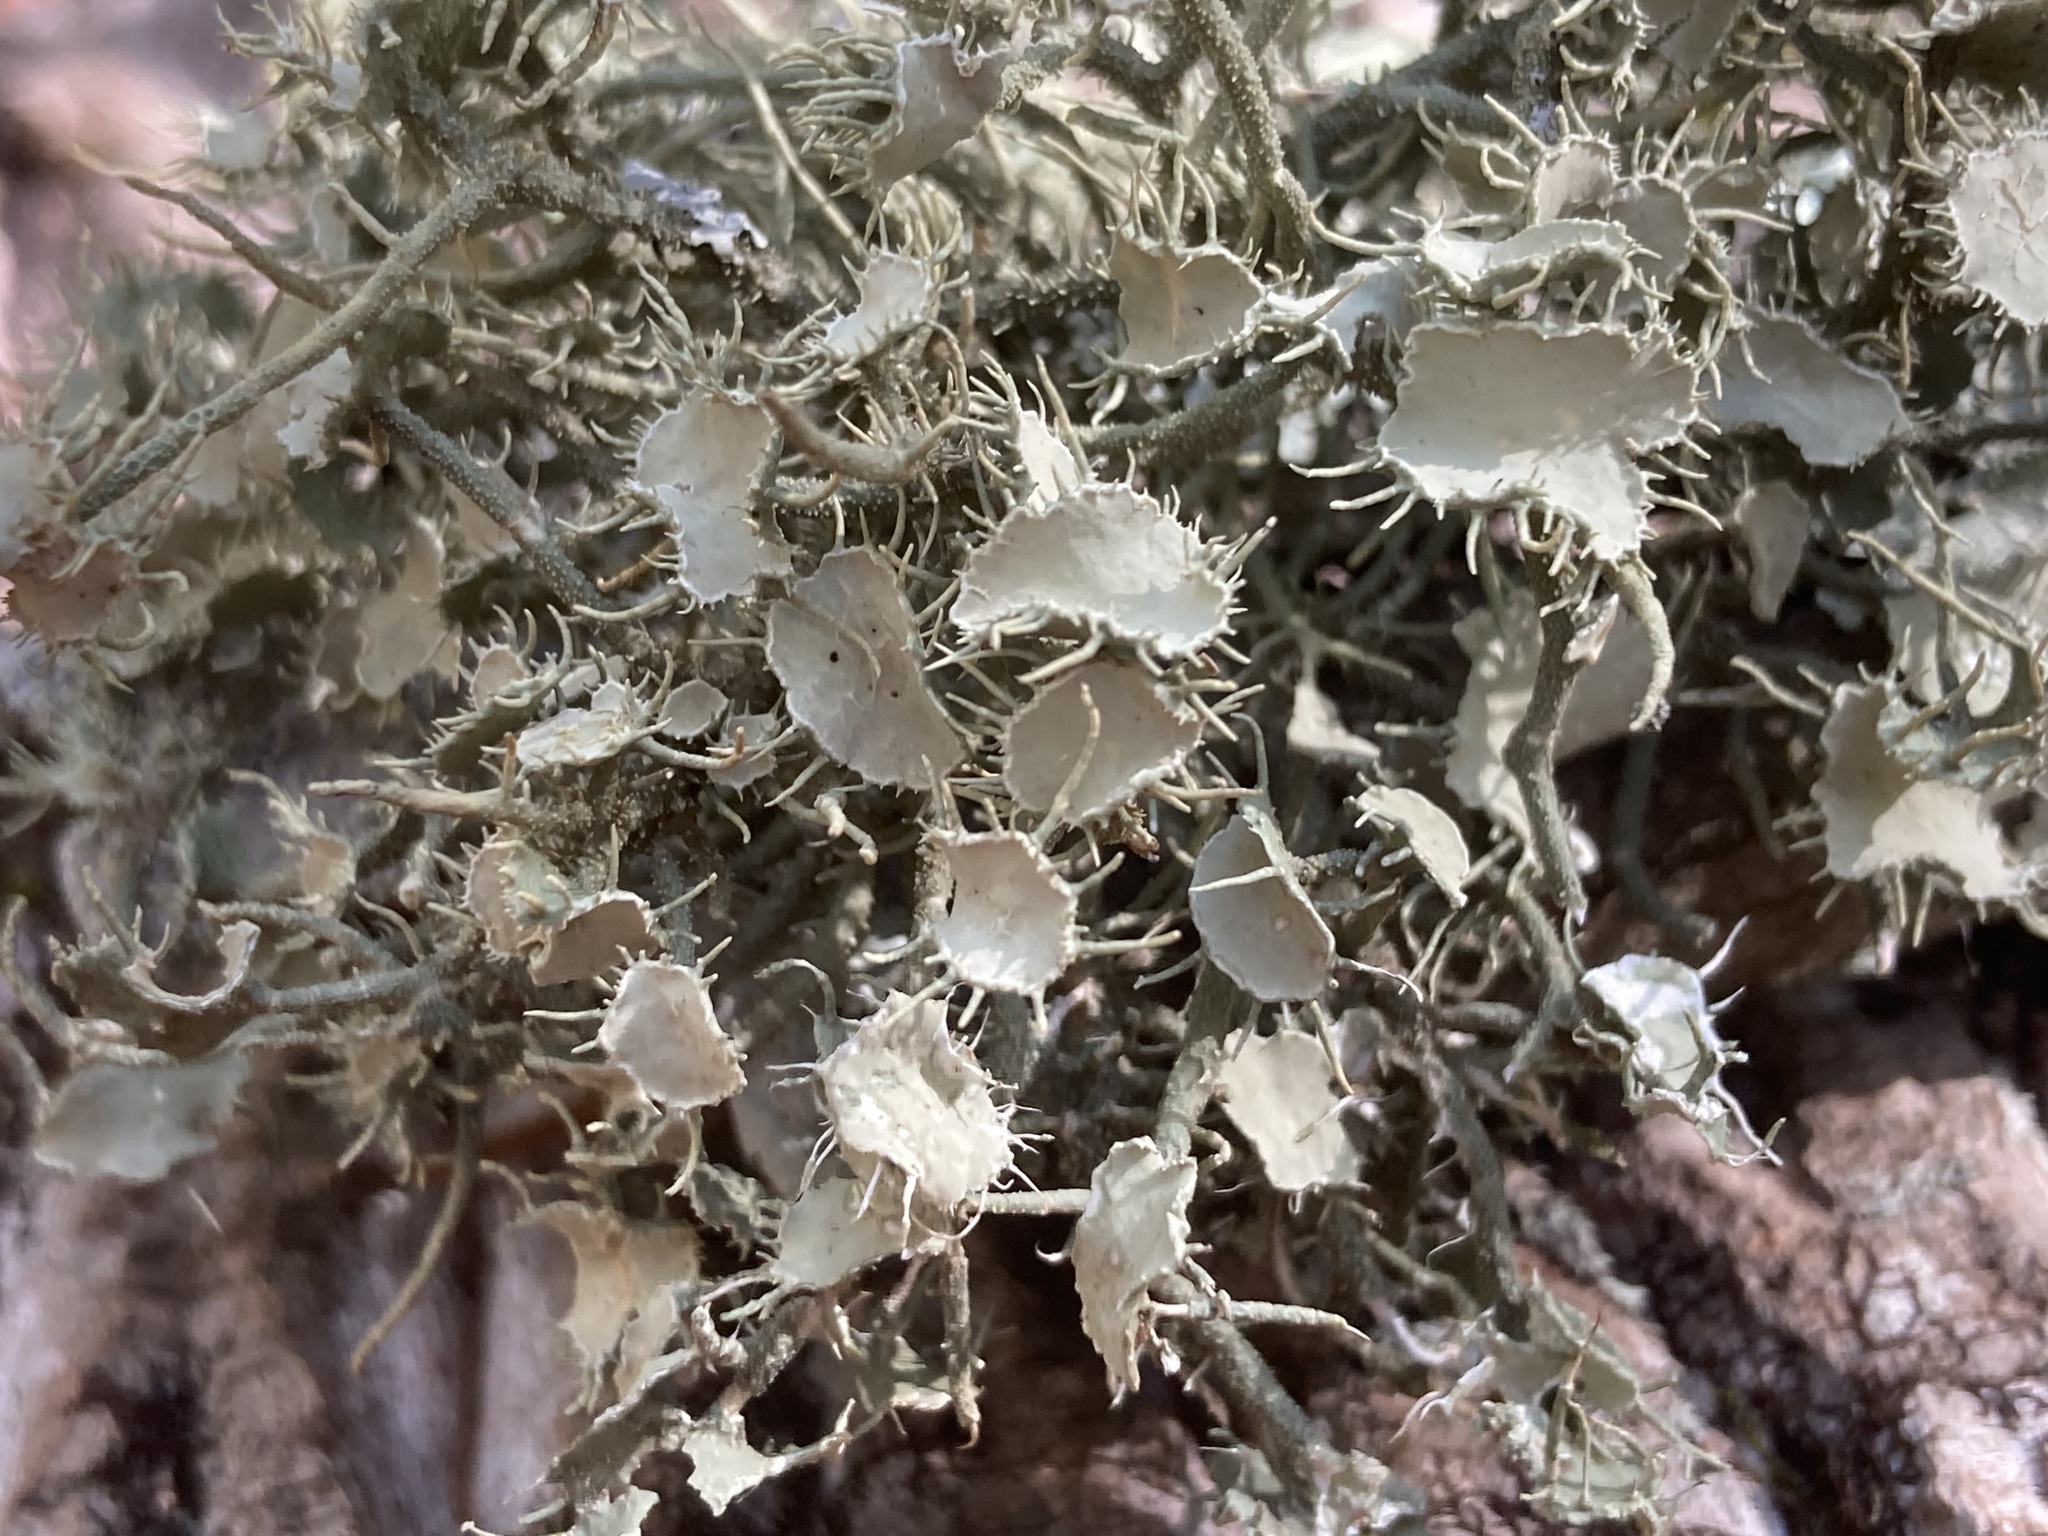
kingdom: Fungi
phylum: Ascomycota
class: Lecanoromycetes
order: Lecanorales
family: Parmeliaceae
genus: Usnea
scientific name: Usnea strigosa
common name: Bushy beard lichen
